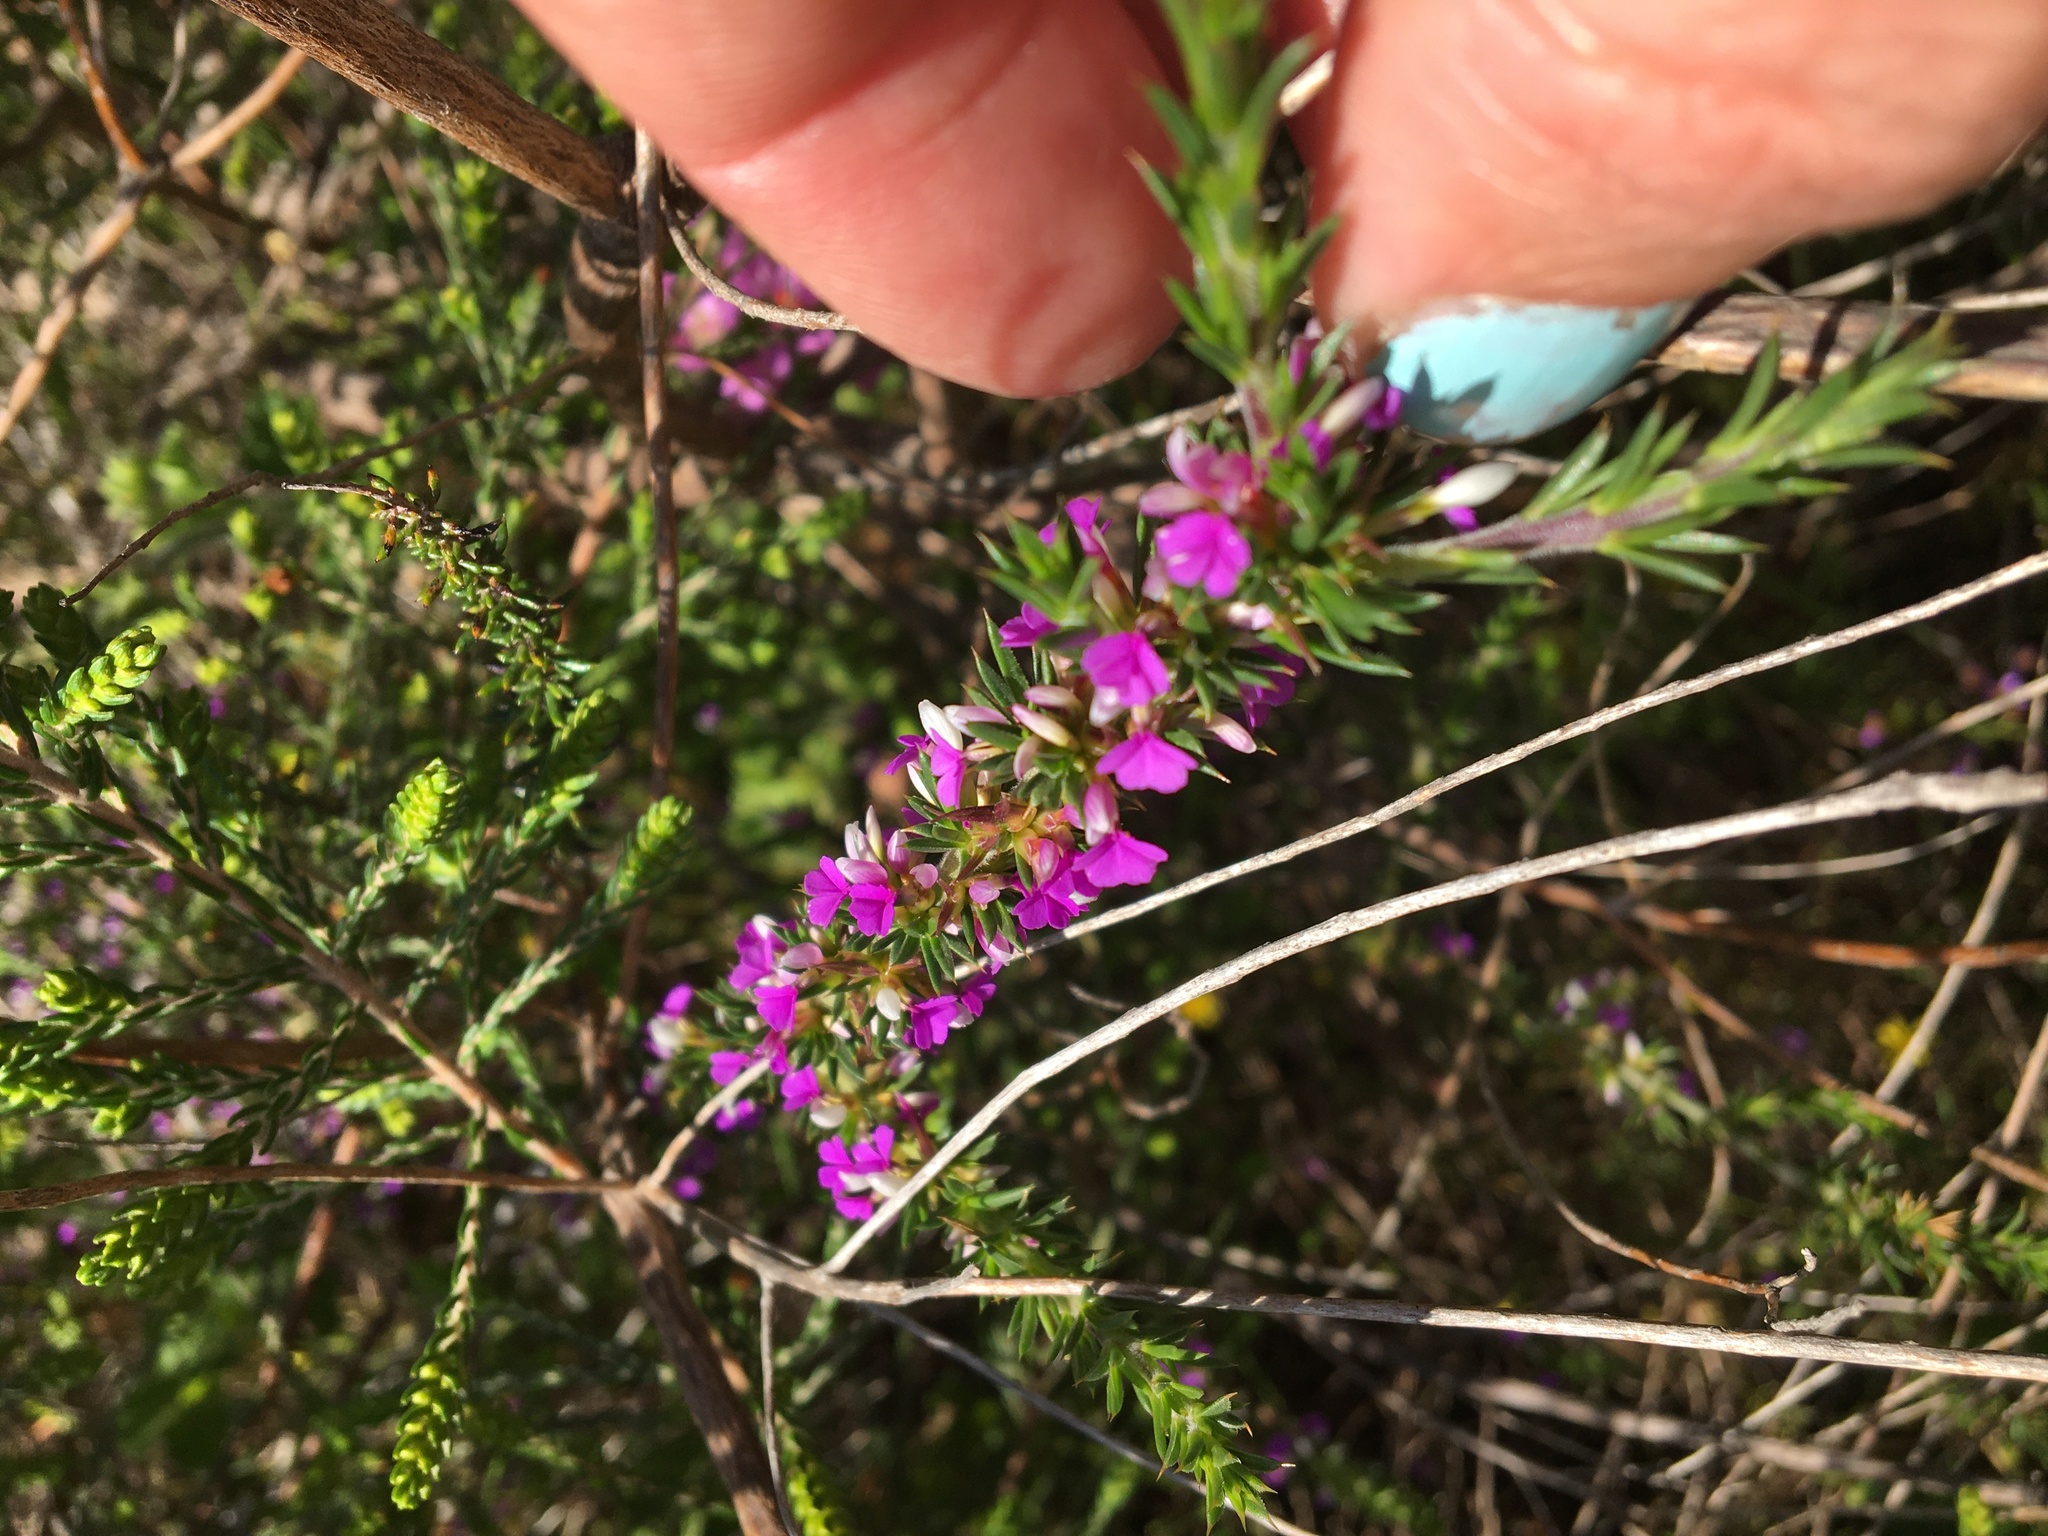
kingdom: Plantae
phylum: Tracheophyta
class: Magnoliopsida
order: Fabales
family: Polygalaceae
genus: Muraltia
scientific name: Muraltia heisteria
